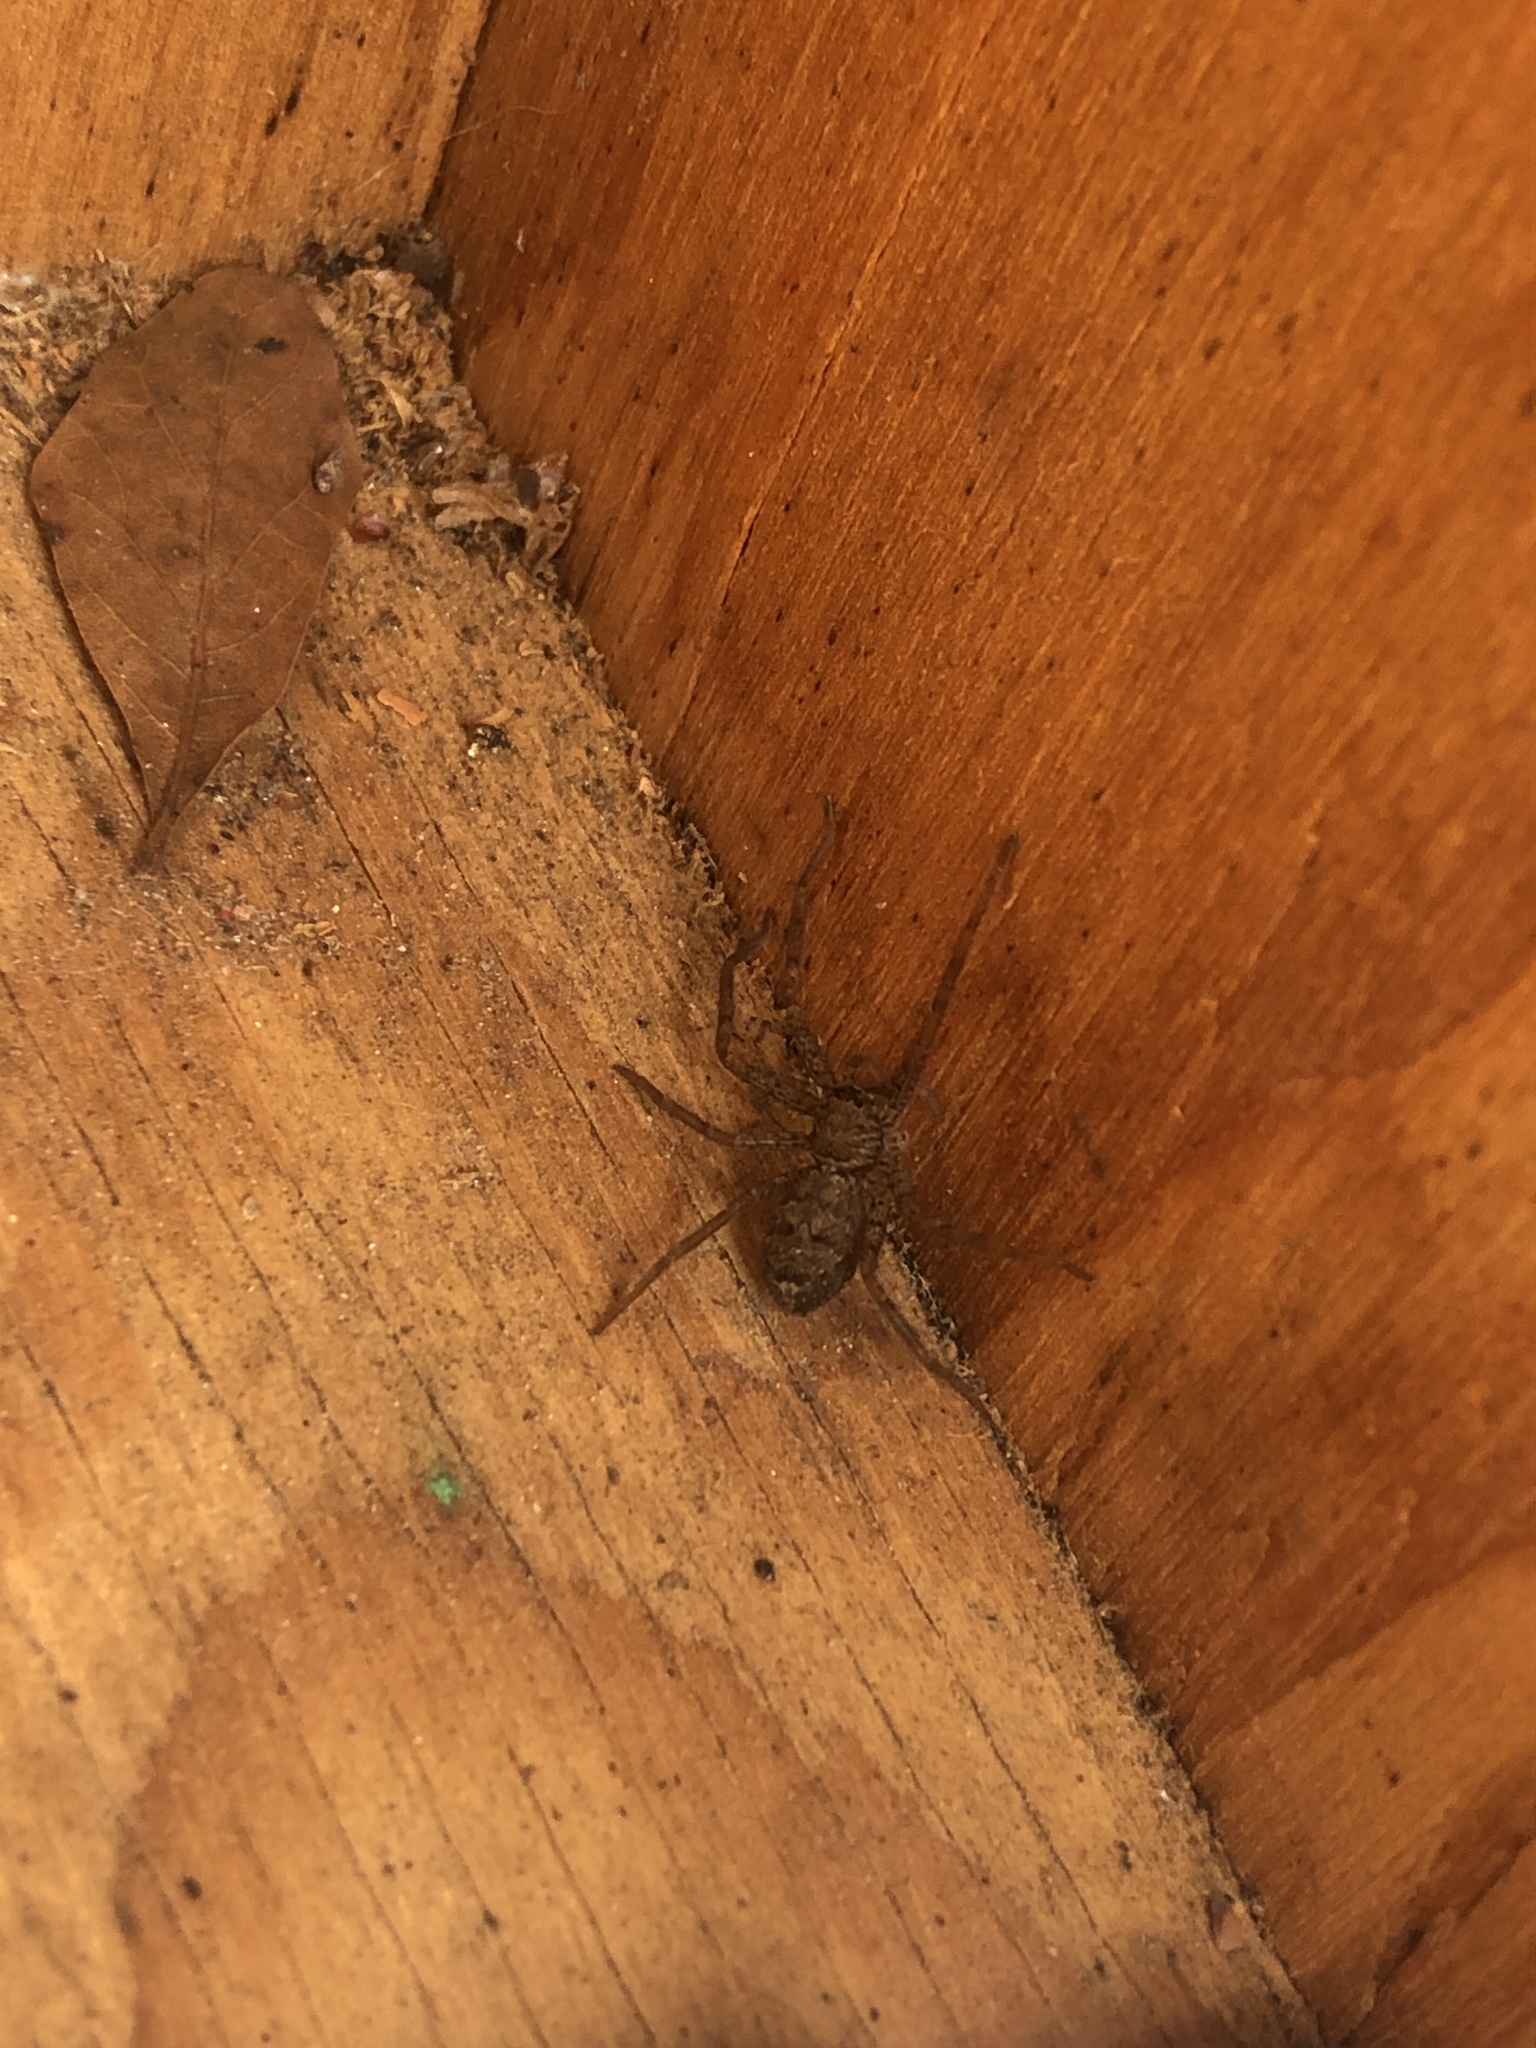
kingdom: Animalia
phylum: Arthropoda
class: Arachnida
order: Araneae
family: Sparassidae
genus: Heteropoda
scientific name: Heteropoda venatoria
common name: Huntsman spider
